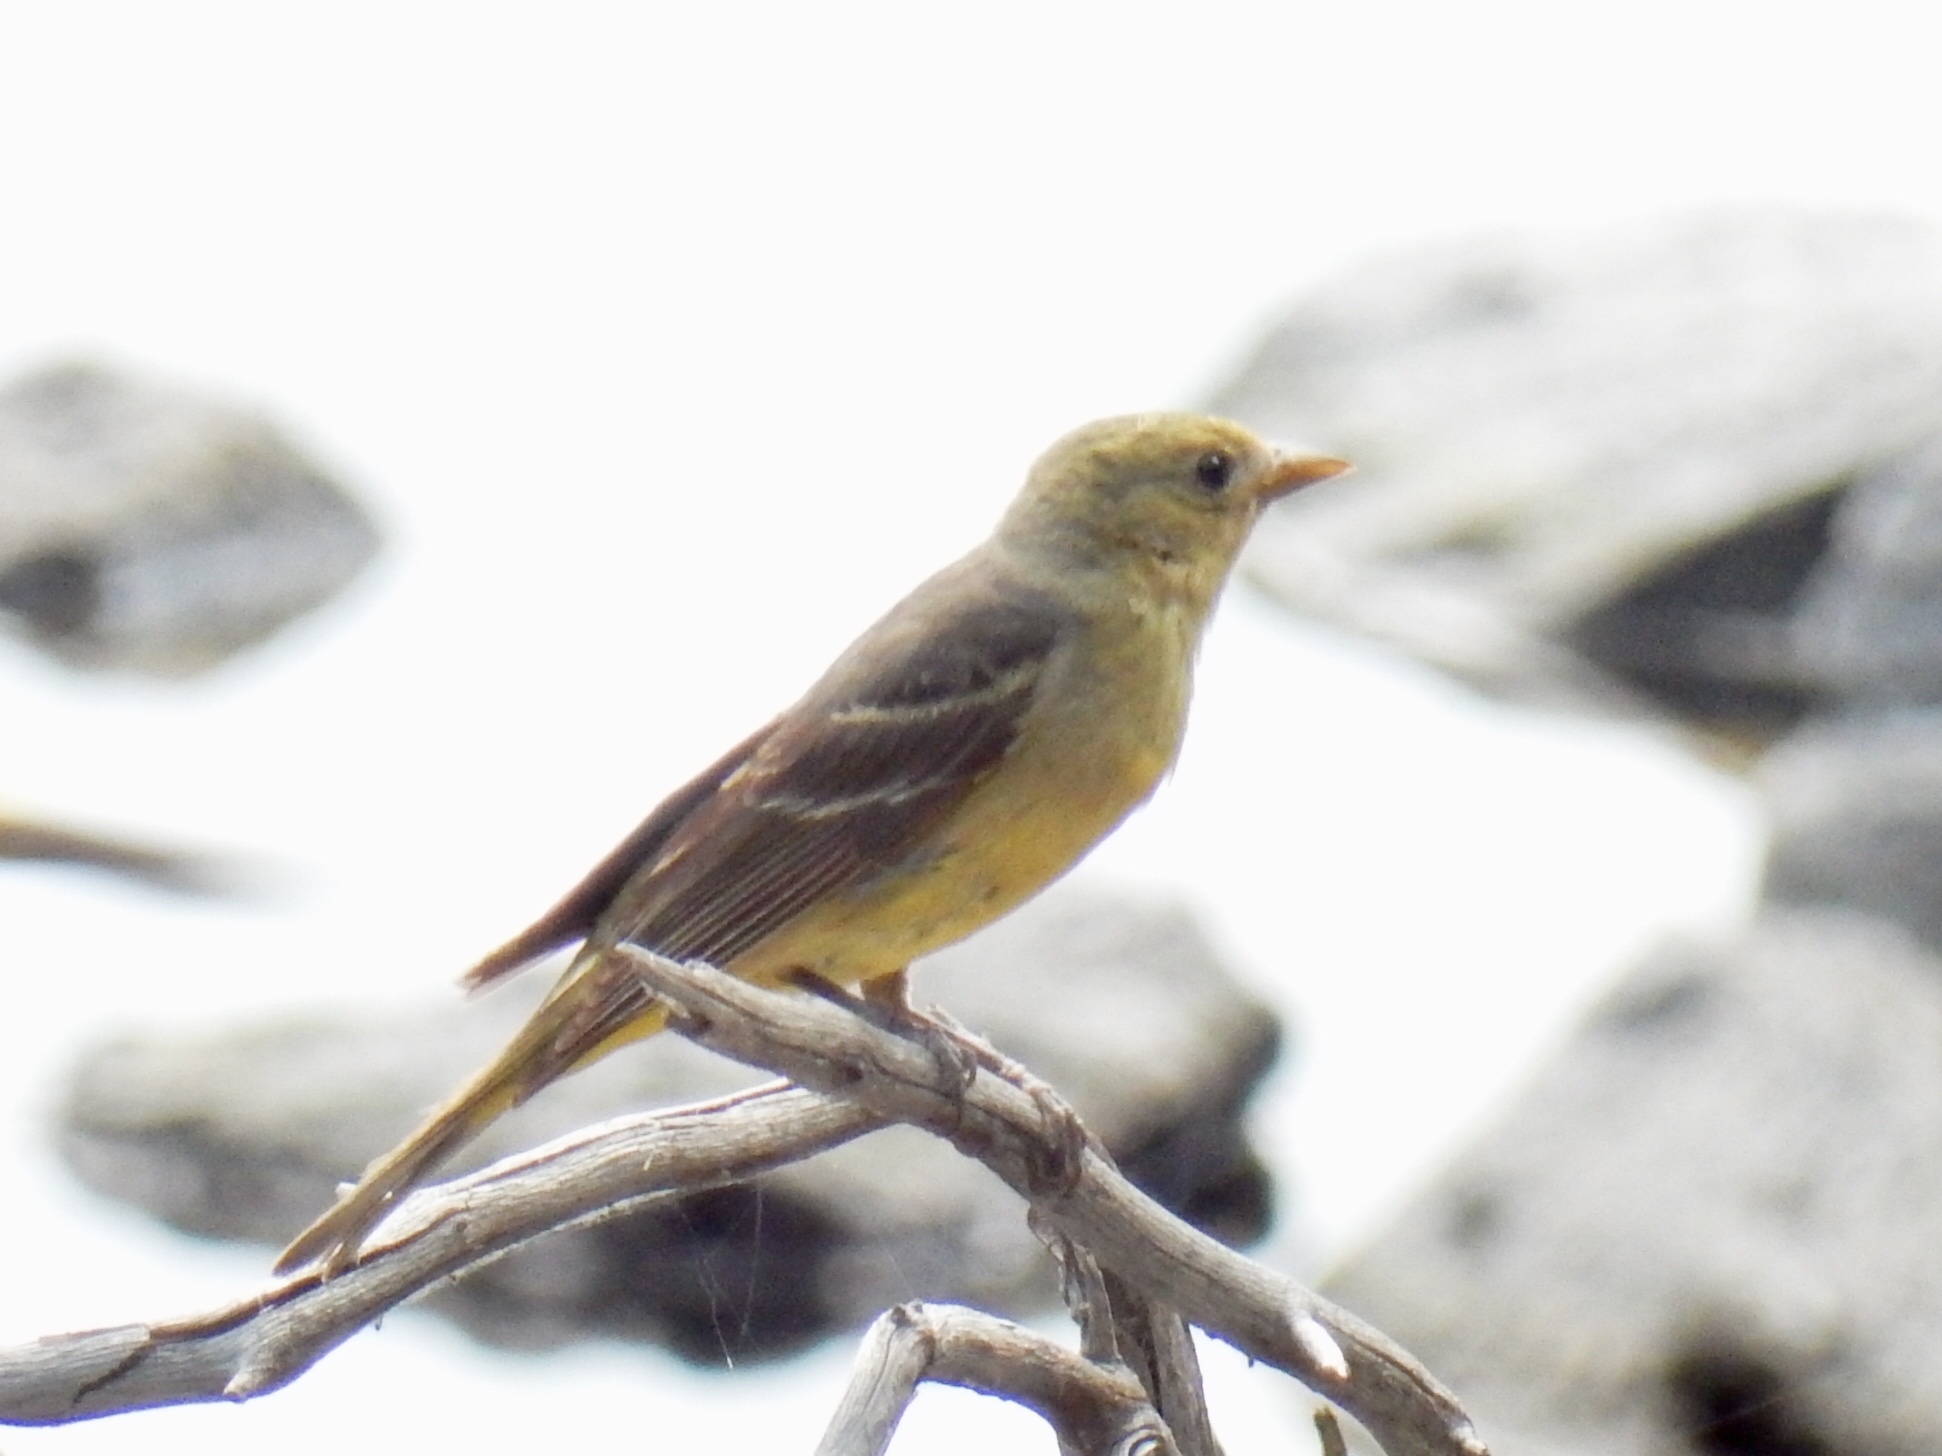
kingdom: Animalia
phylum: Chordata
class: Aves
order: Passeriformes
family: Icteridae
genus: Icterus
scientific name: Icterus bullockii
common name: Bullock's oriole
